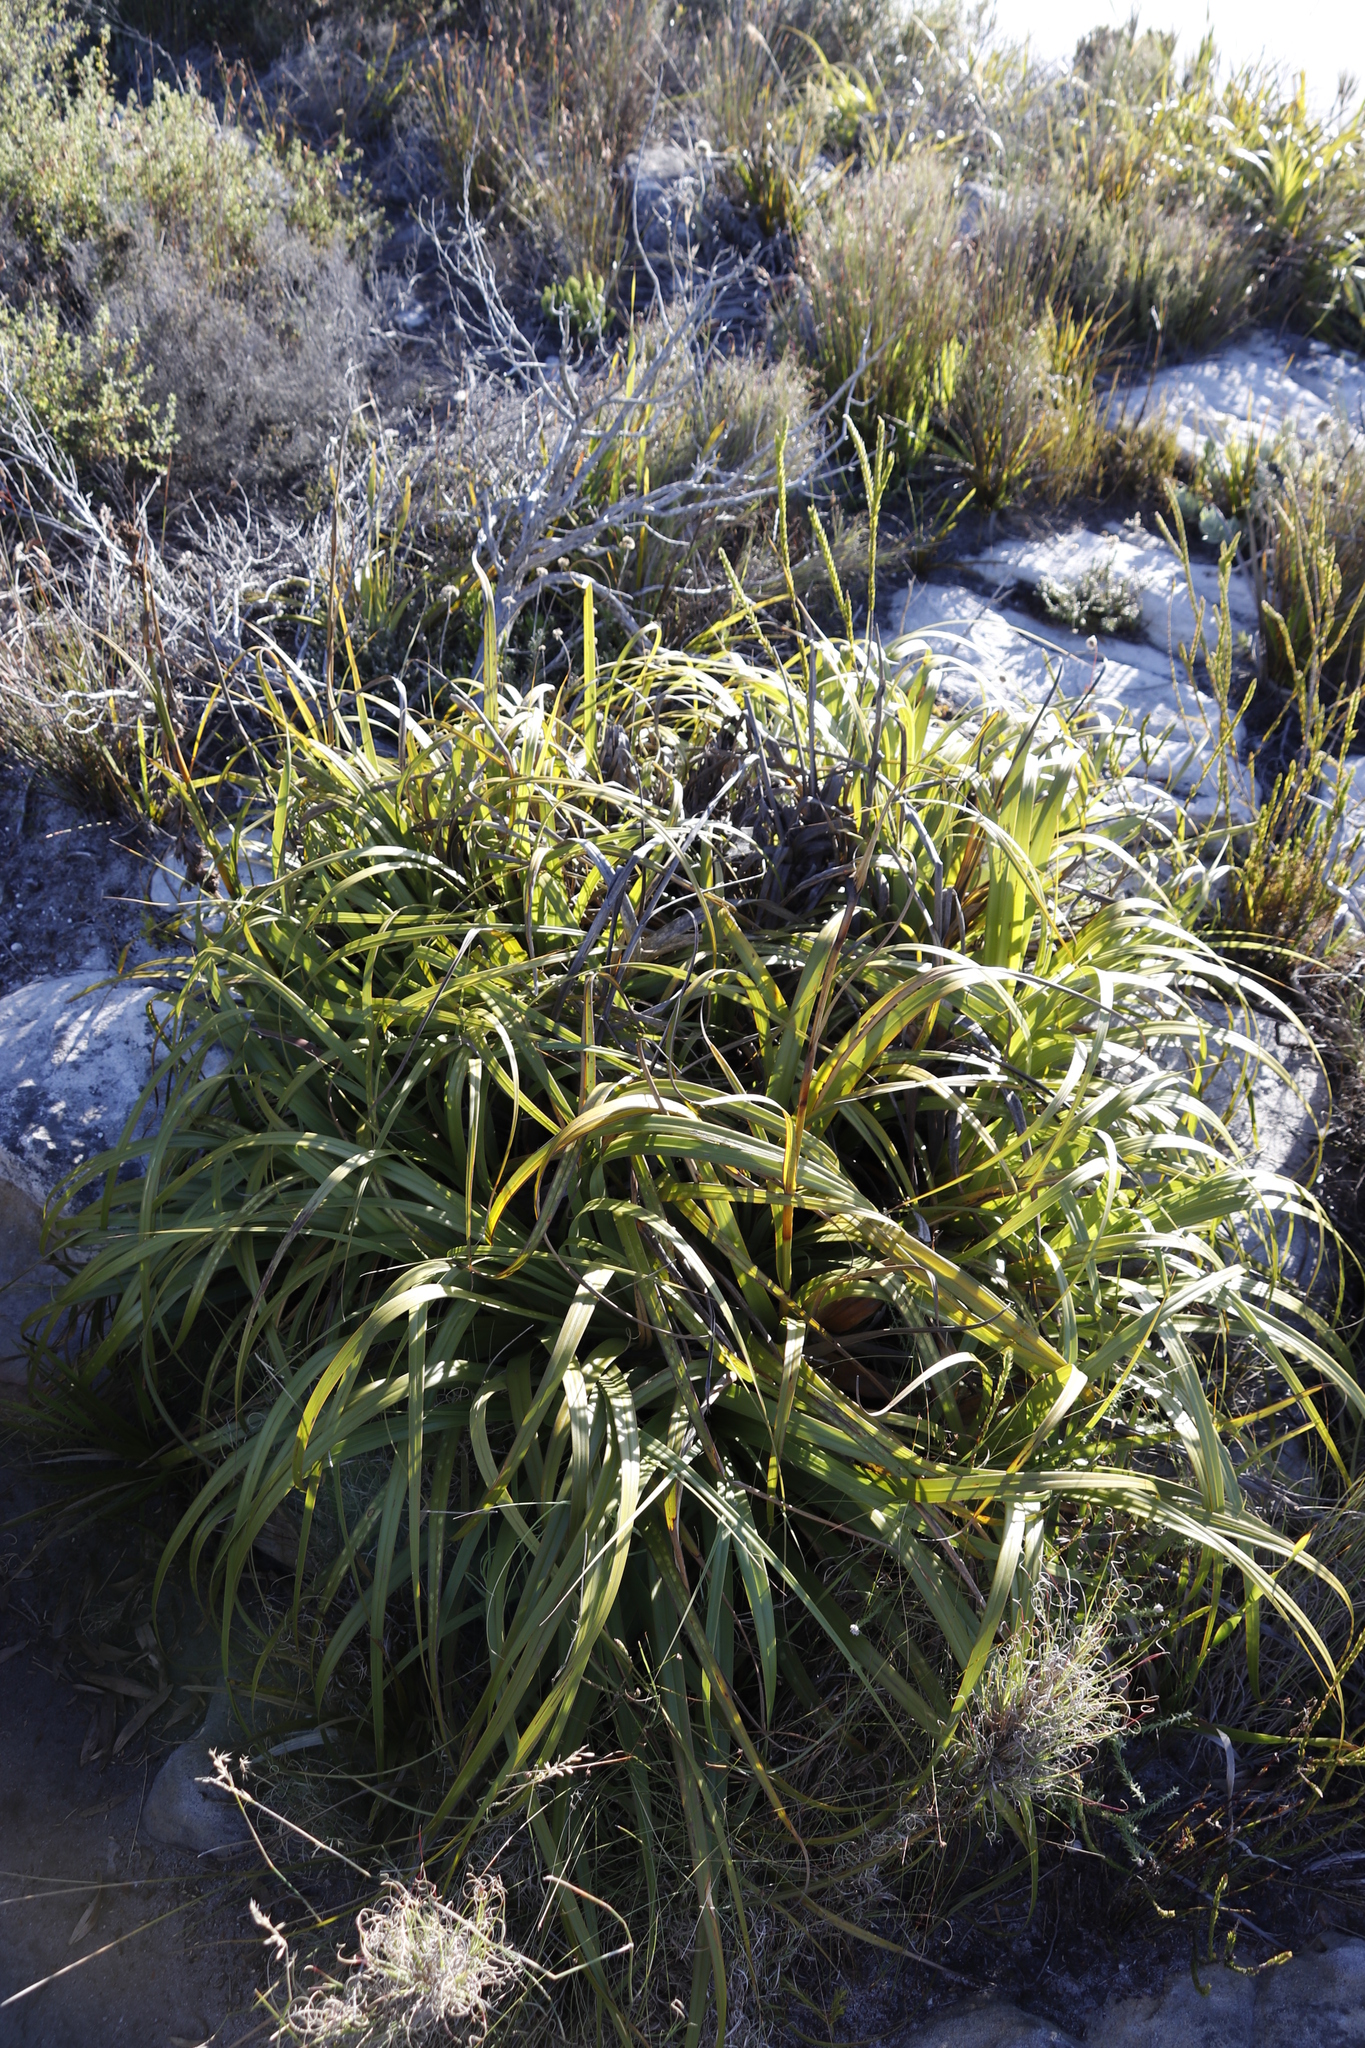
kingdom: Plantae
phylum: Tracheophyta
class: Liliopsida
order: Poales
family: Cyperaceae
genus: Tetraria
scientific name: Tetraria thermalis
